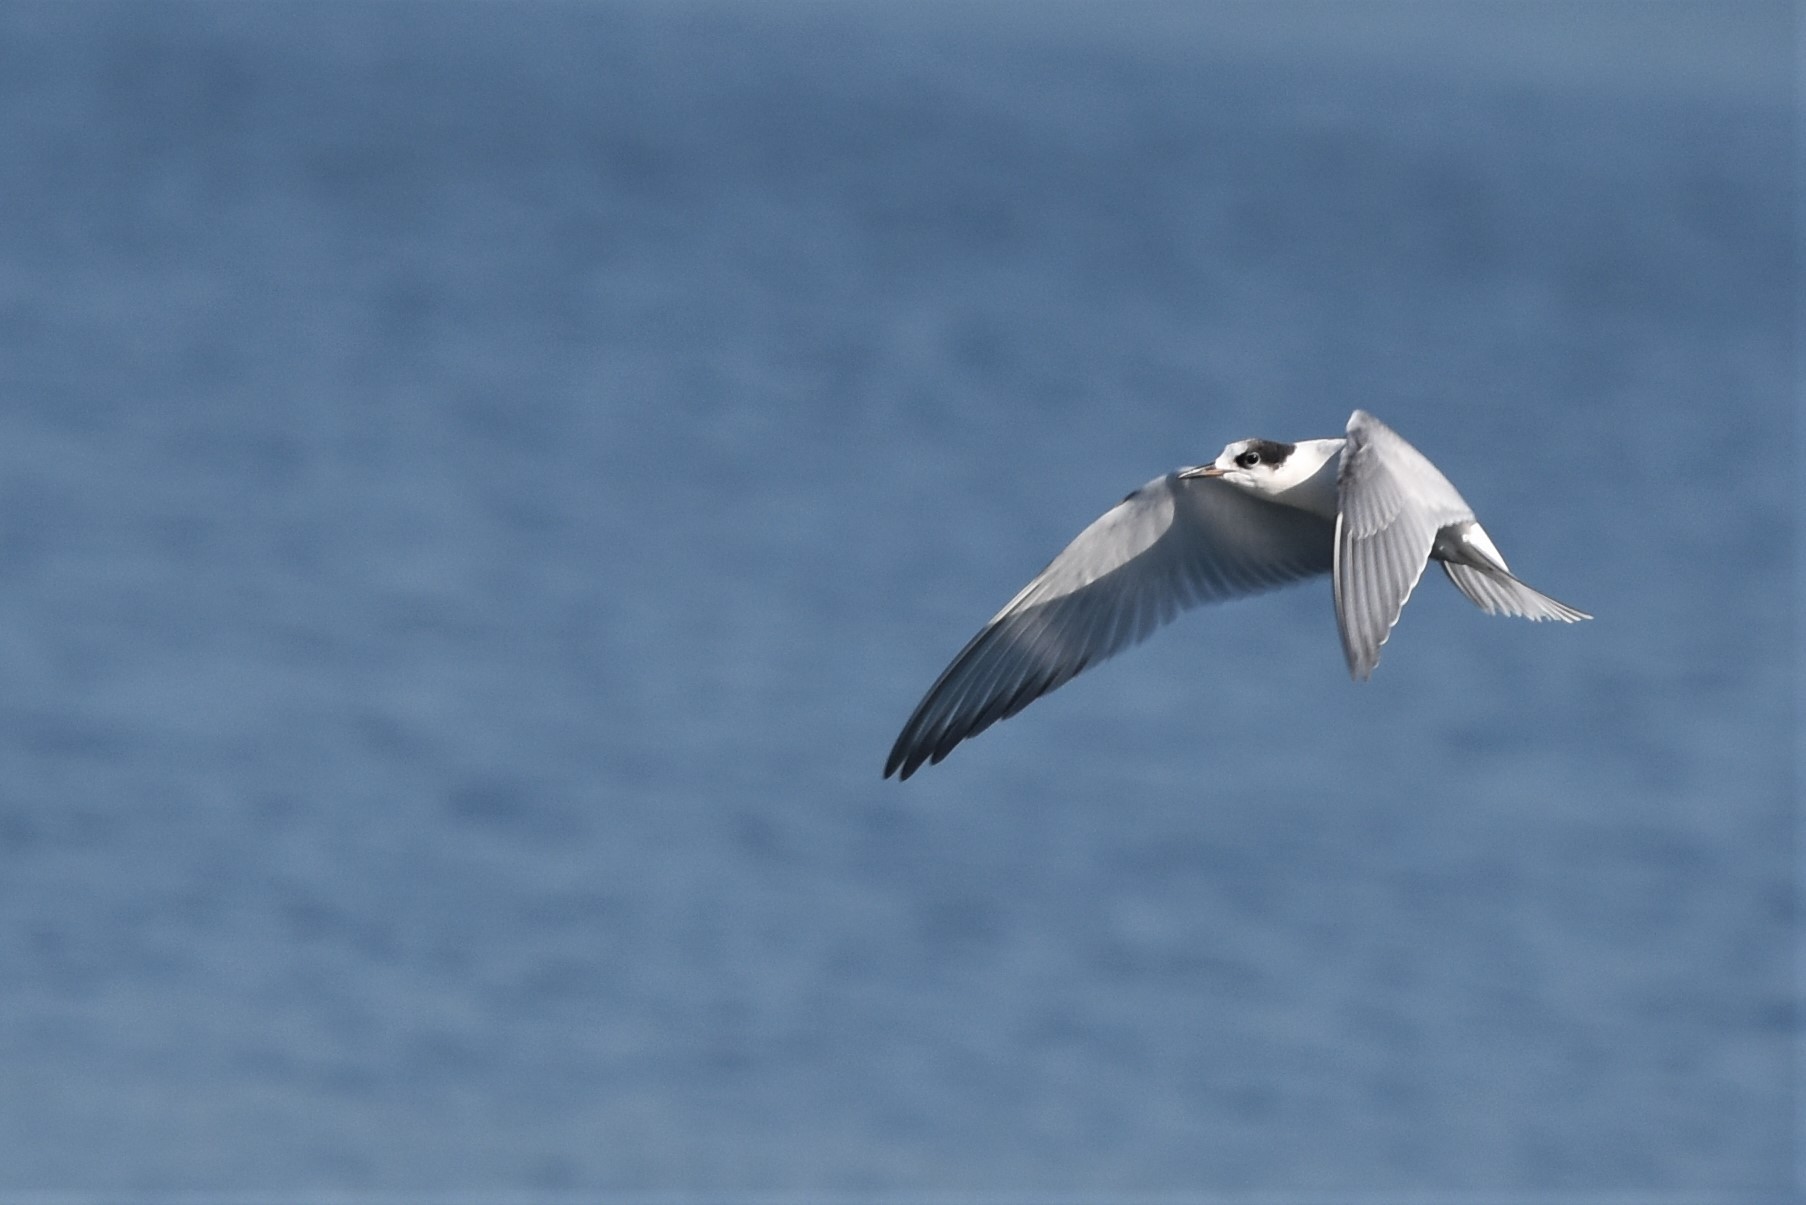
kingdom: Animalia
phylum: Chordata
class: Aves
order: Charadriiformes
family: Laridae
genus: Sterna
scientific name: Sterna hirundo
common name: Common tern
